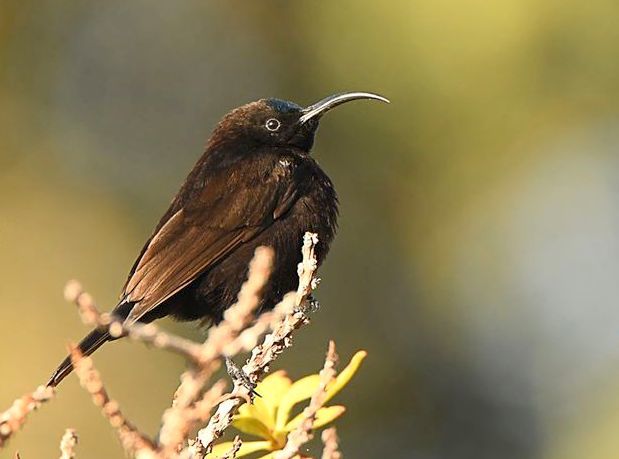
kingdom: Animalia
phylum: Chordata
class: Aves
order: Passeriformes
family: Nectariniidae
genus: Chalcomitra
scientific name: Chalcomitra amethystina
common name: Amethyst sunbird
